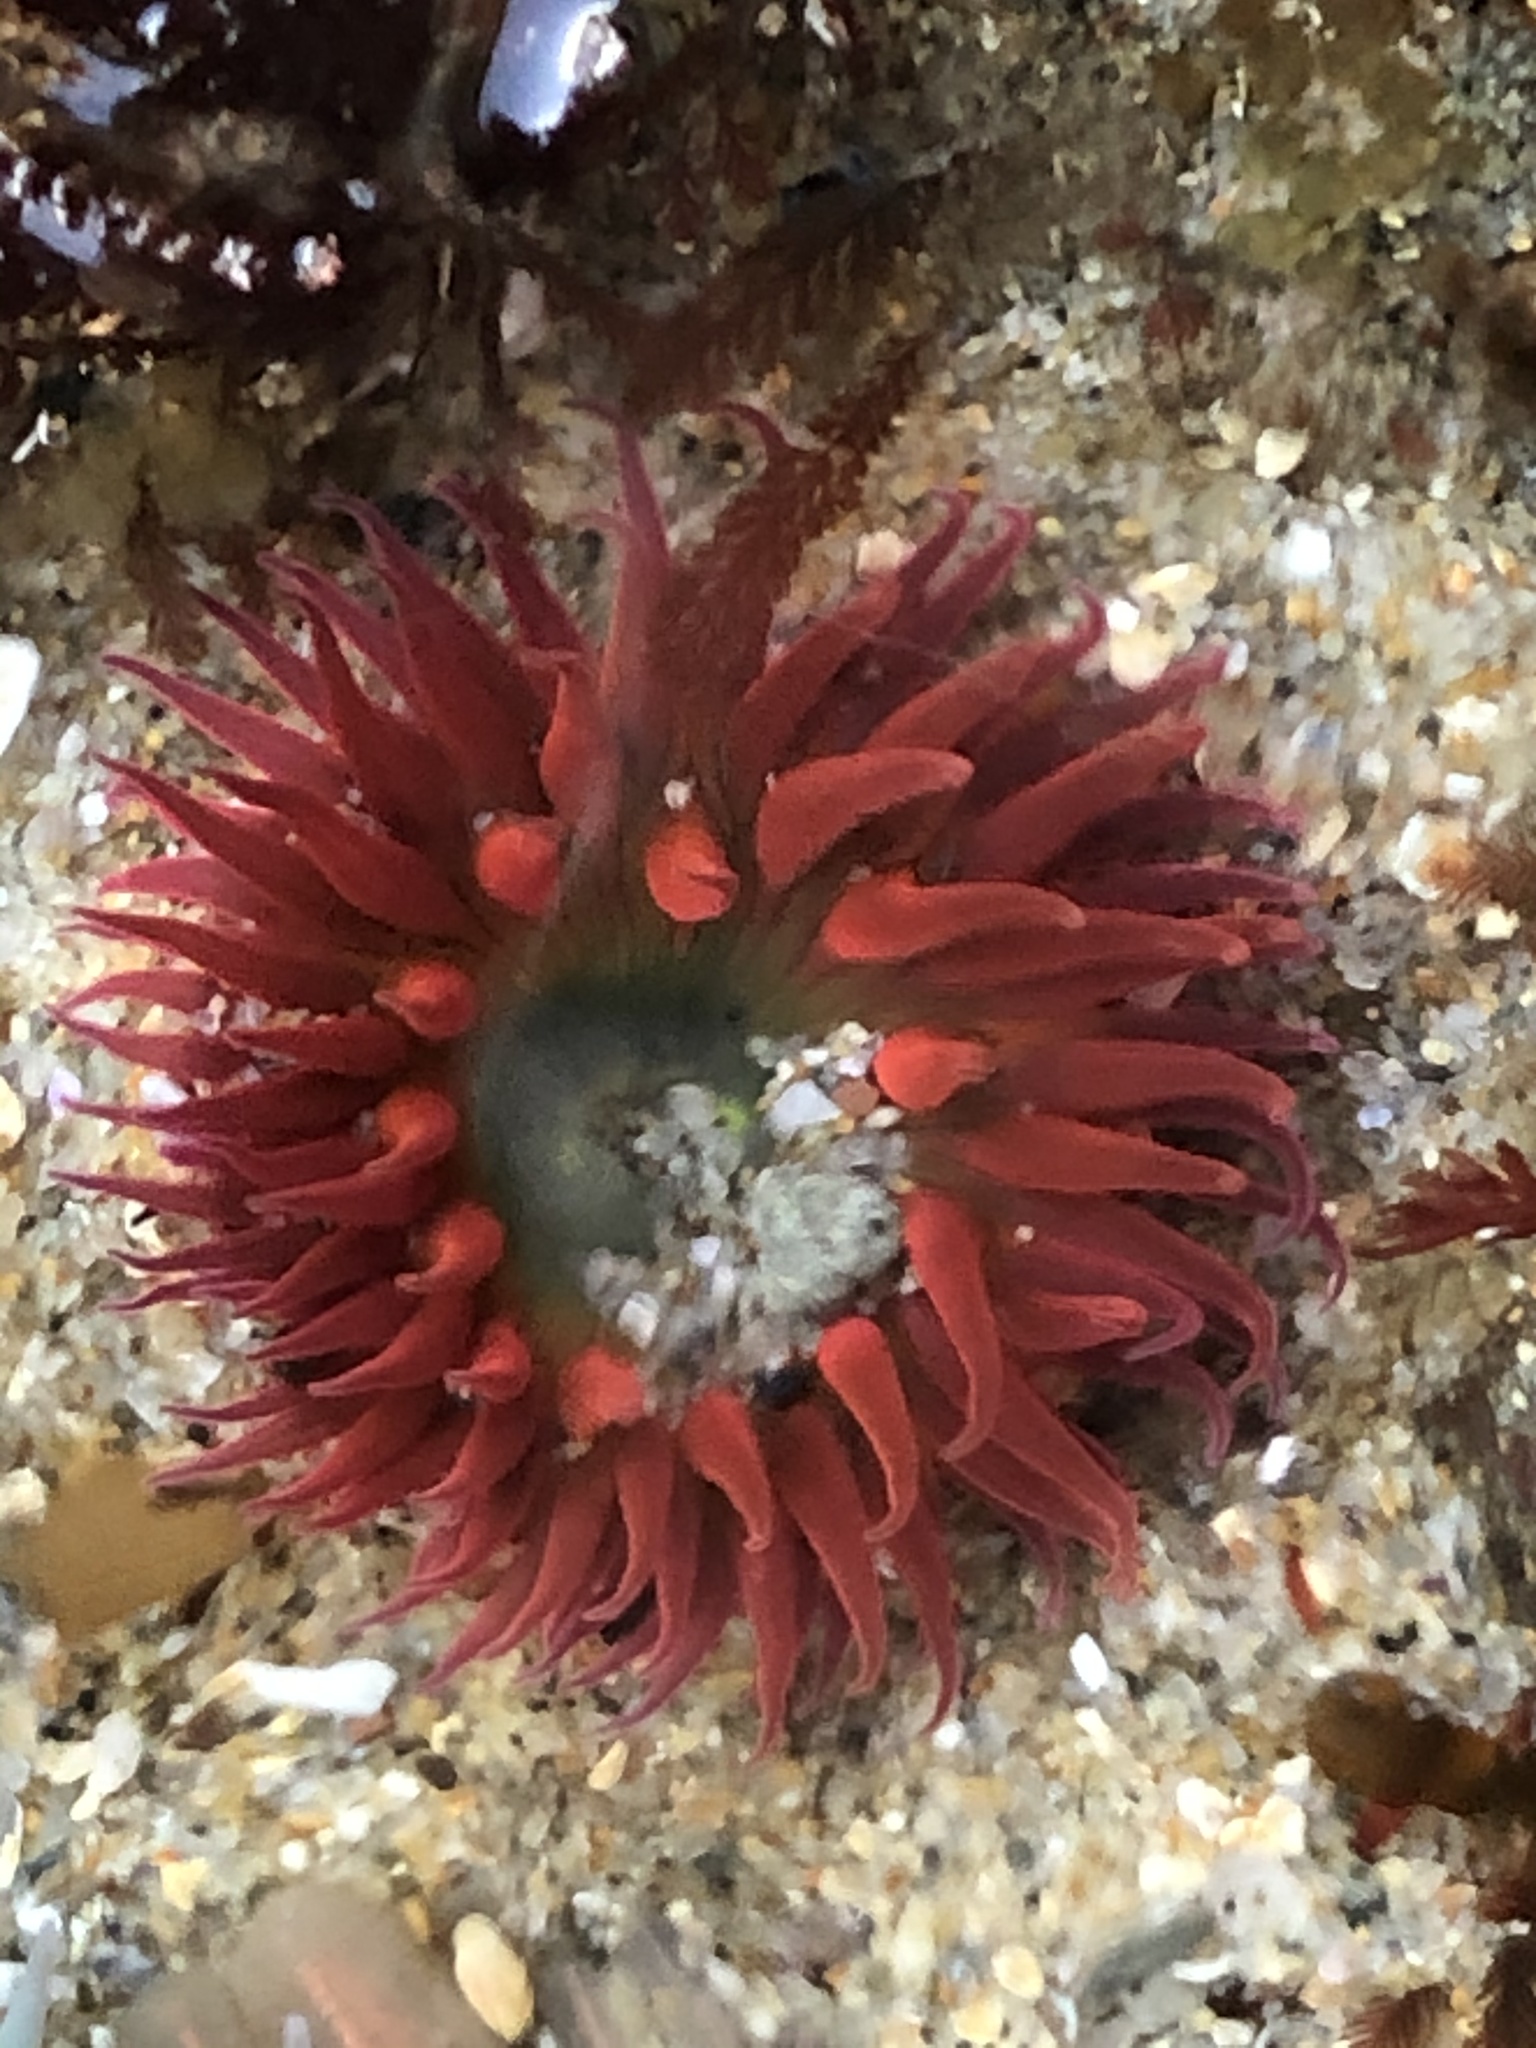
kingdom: Animalia
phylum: Cnidaria
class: Anthozoa
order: Actiniaria
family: Actiniidae
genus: Anthopleura
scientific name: Anthopleura artemisia
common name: Buried sea anemone
